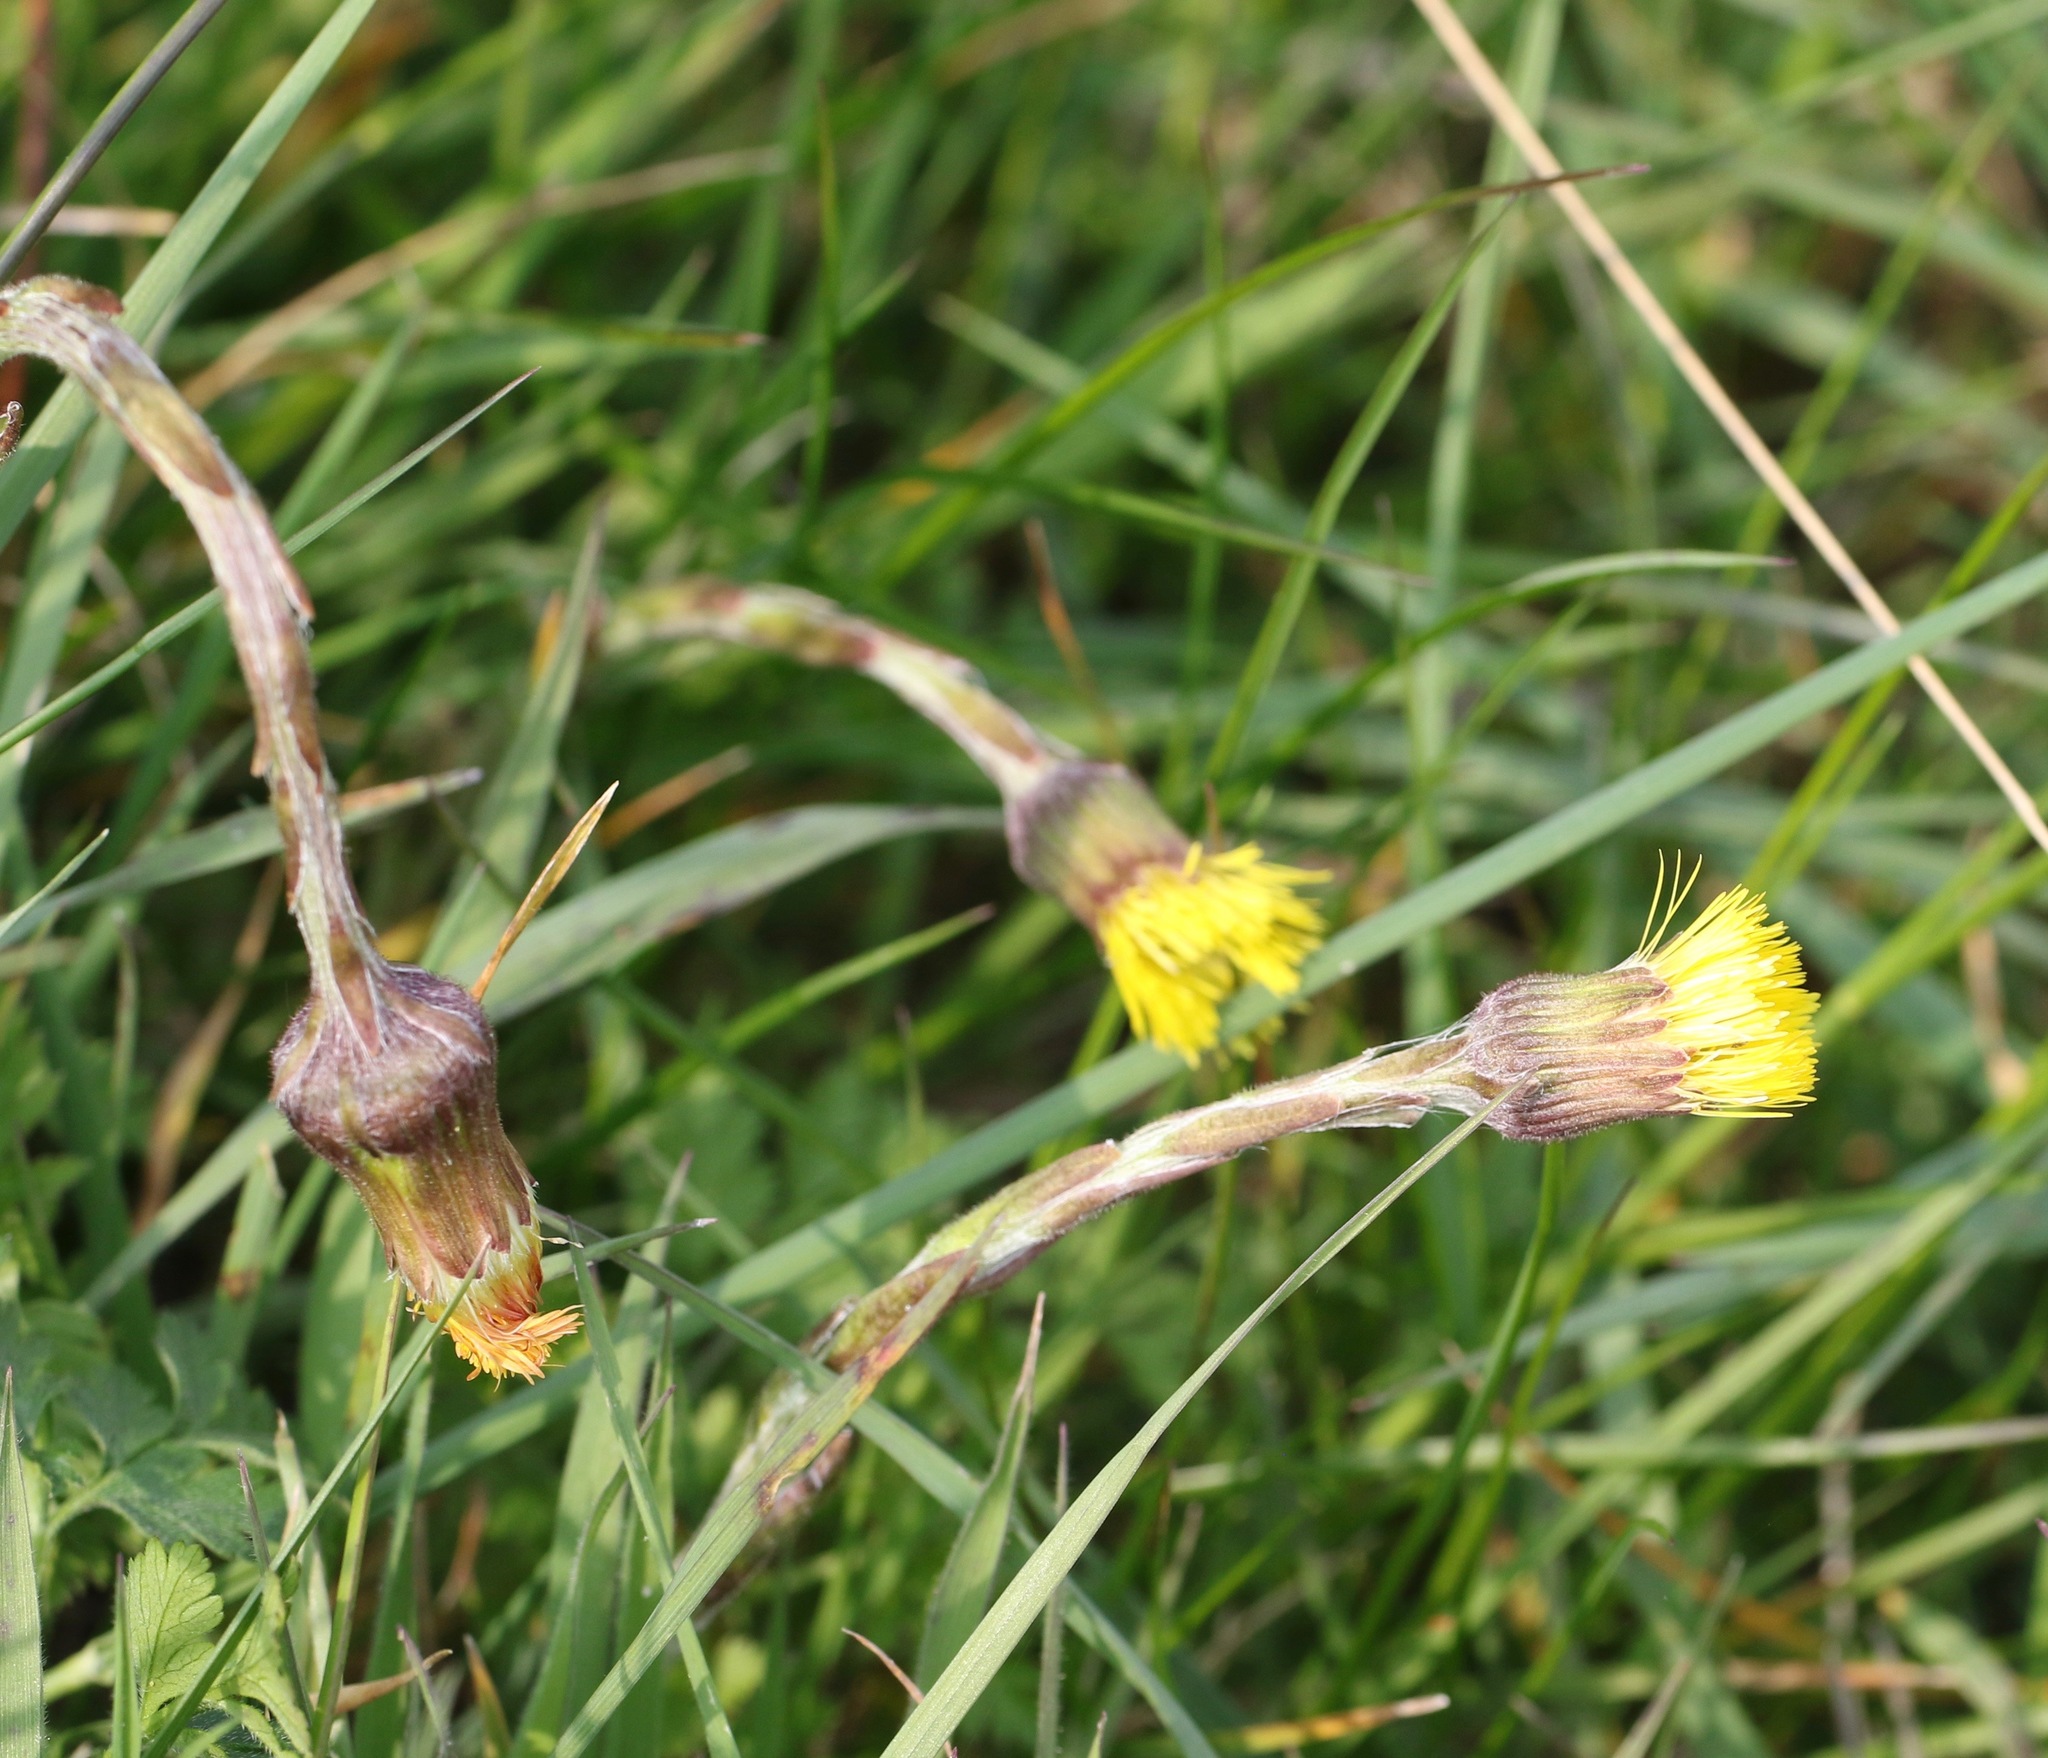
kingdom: Plantae
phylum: Tracheophyta
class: Magnoliopsida
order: Asterales
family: Asteraceae
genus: Tussilago
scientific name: Tussilago farfara
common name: Coltsfoot
